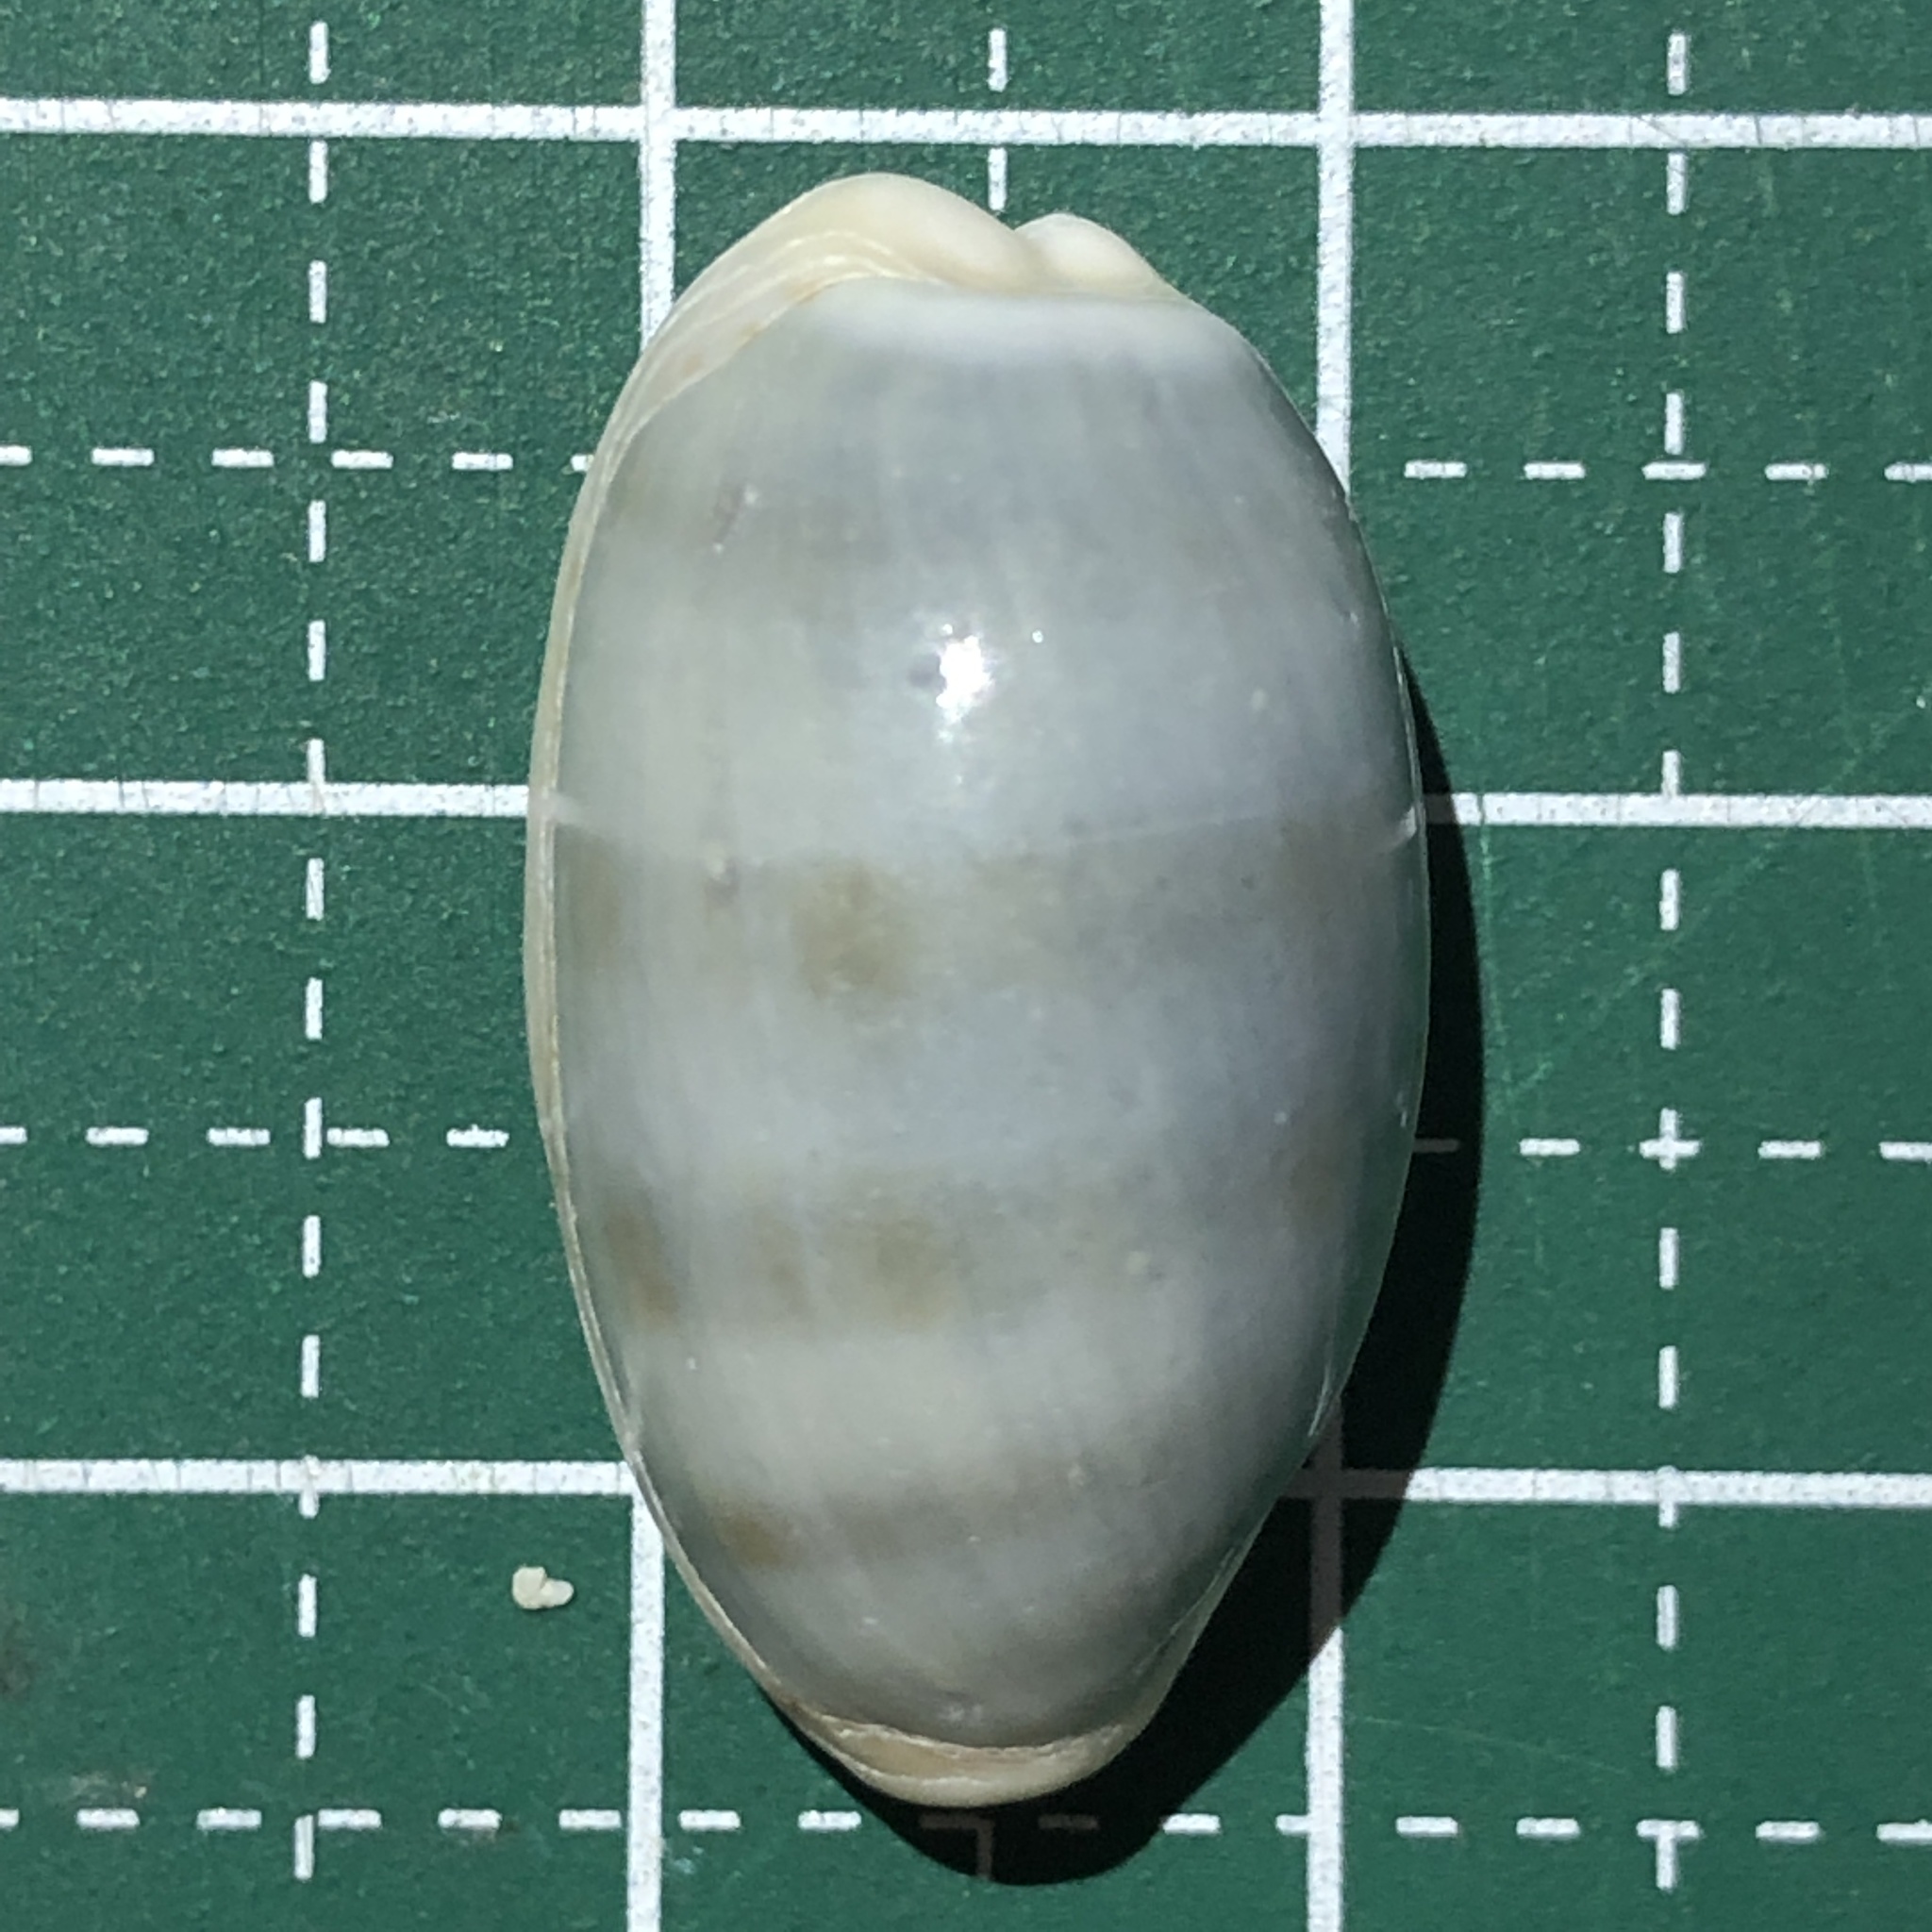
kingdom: Animalia
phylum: Mollusca
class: Gastropoda
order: Littorinimorpha
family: Cypraeidae
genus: Erronea
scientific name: Erronea errones
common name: Mistaken cowrie
